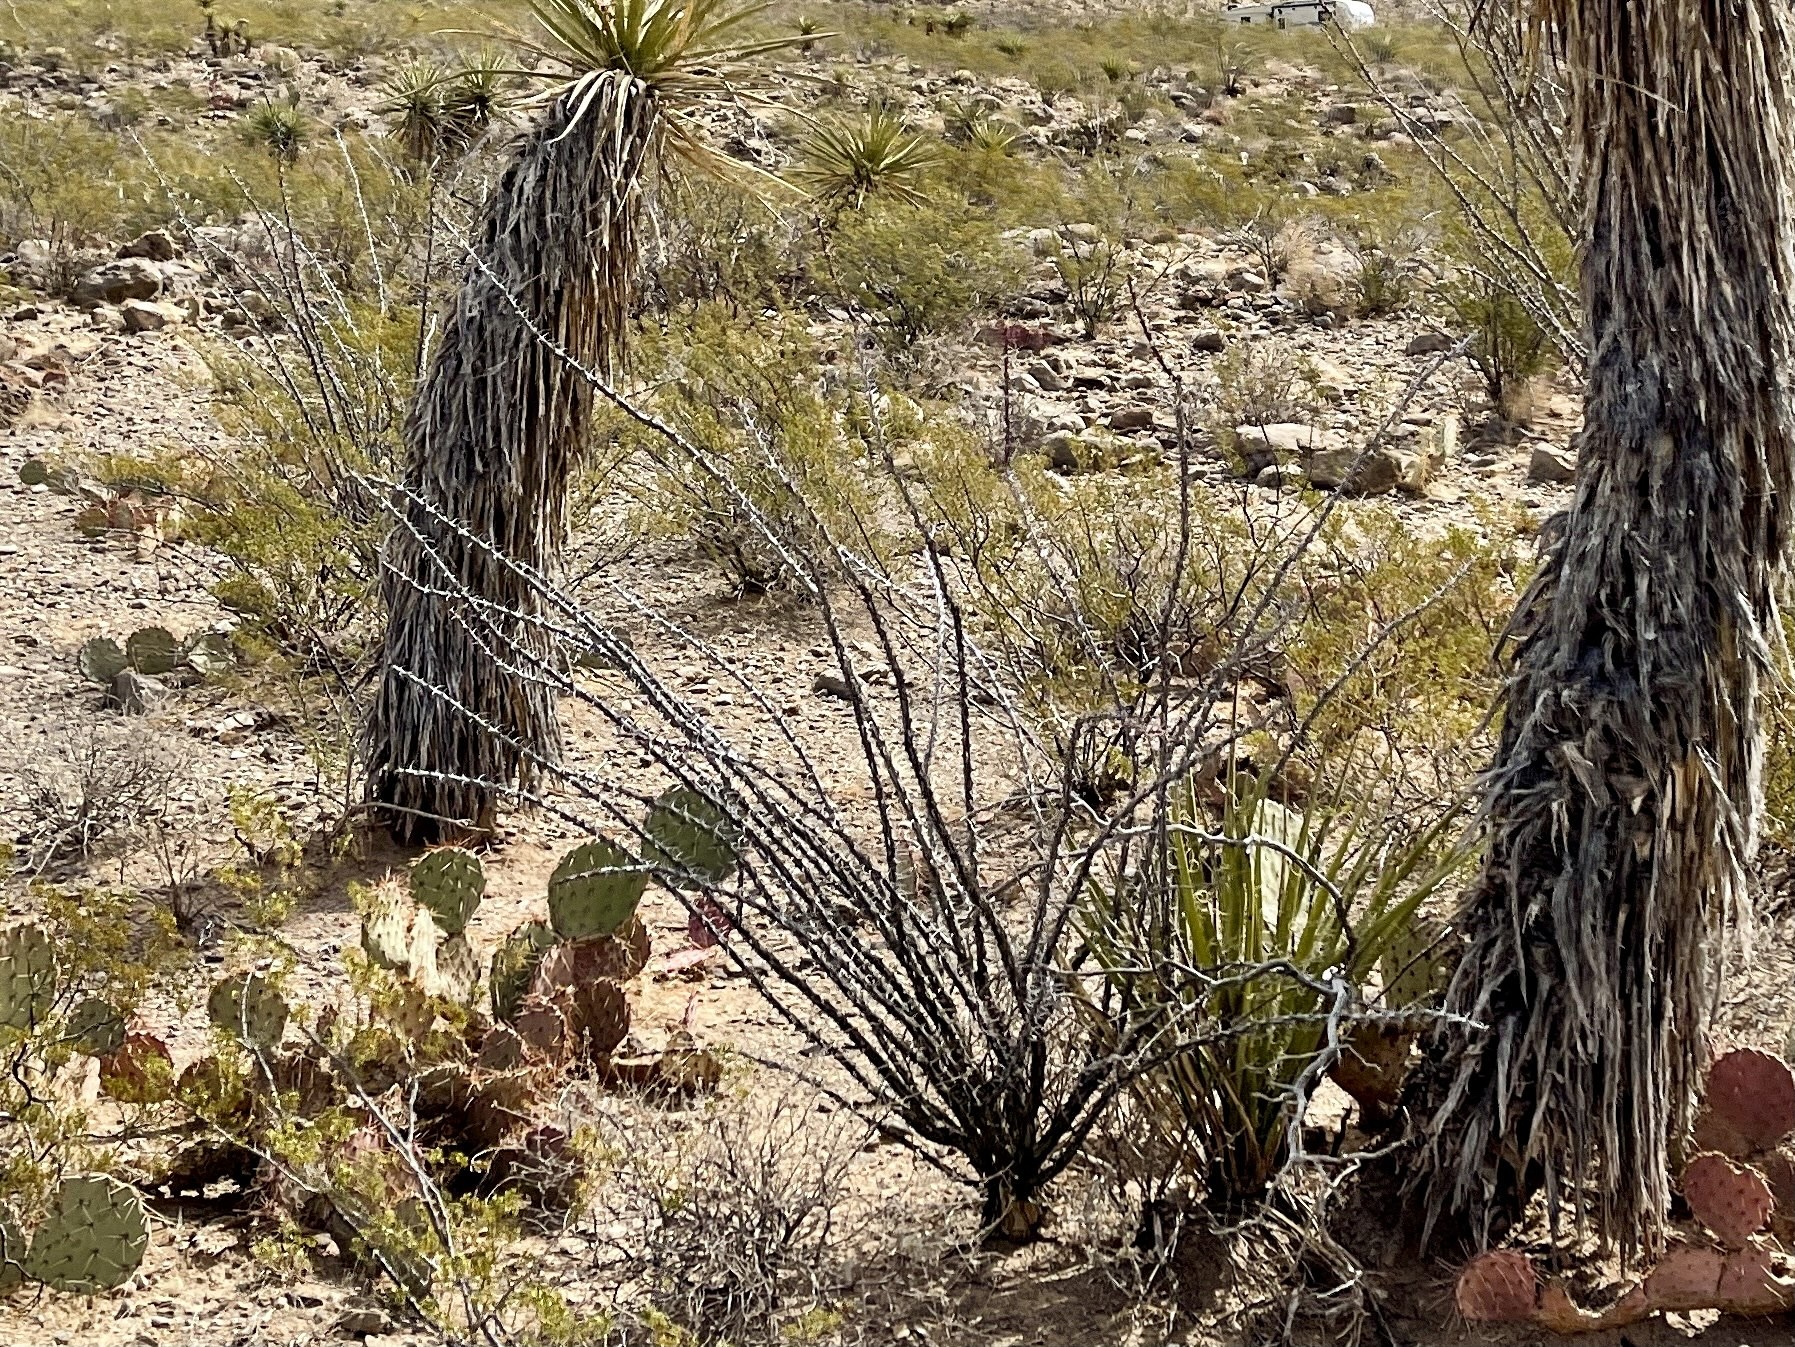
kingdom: Plantae
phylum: Tracheophyta
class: Magnoliopsida
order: Ericales
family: Fouquieriaceae
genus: Fouquieria
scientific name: Fouquieria splendens
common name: Vine-cactus
